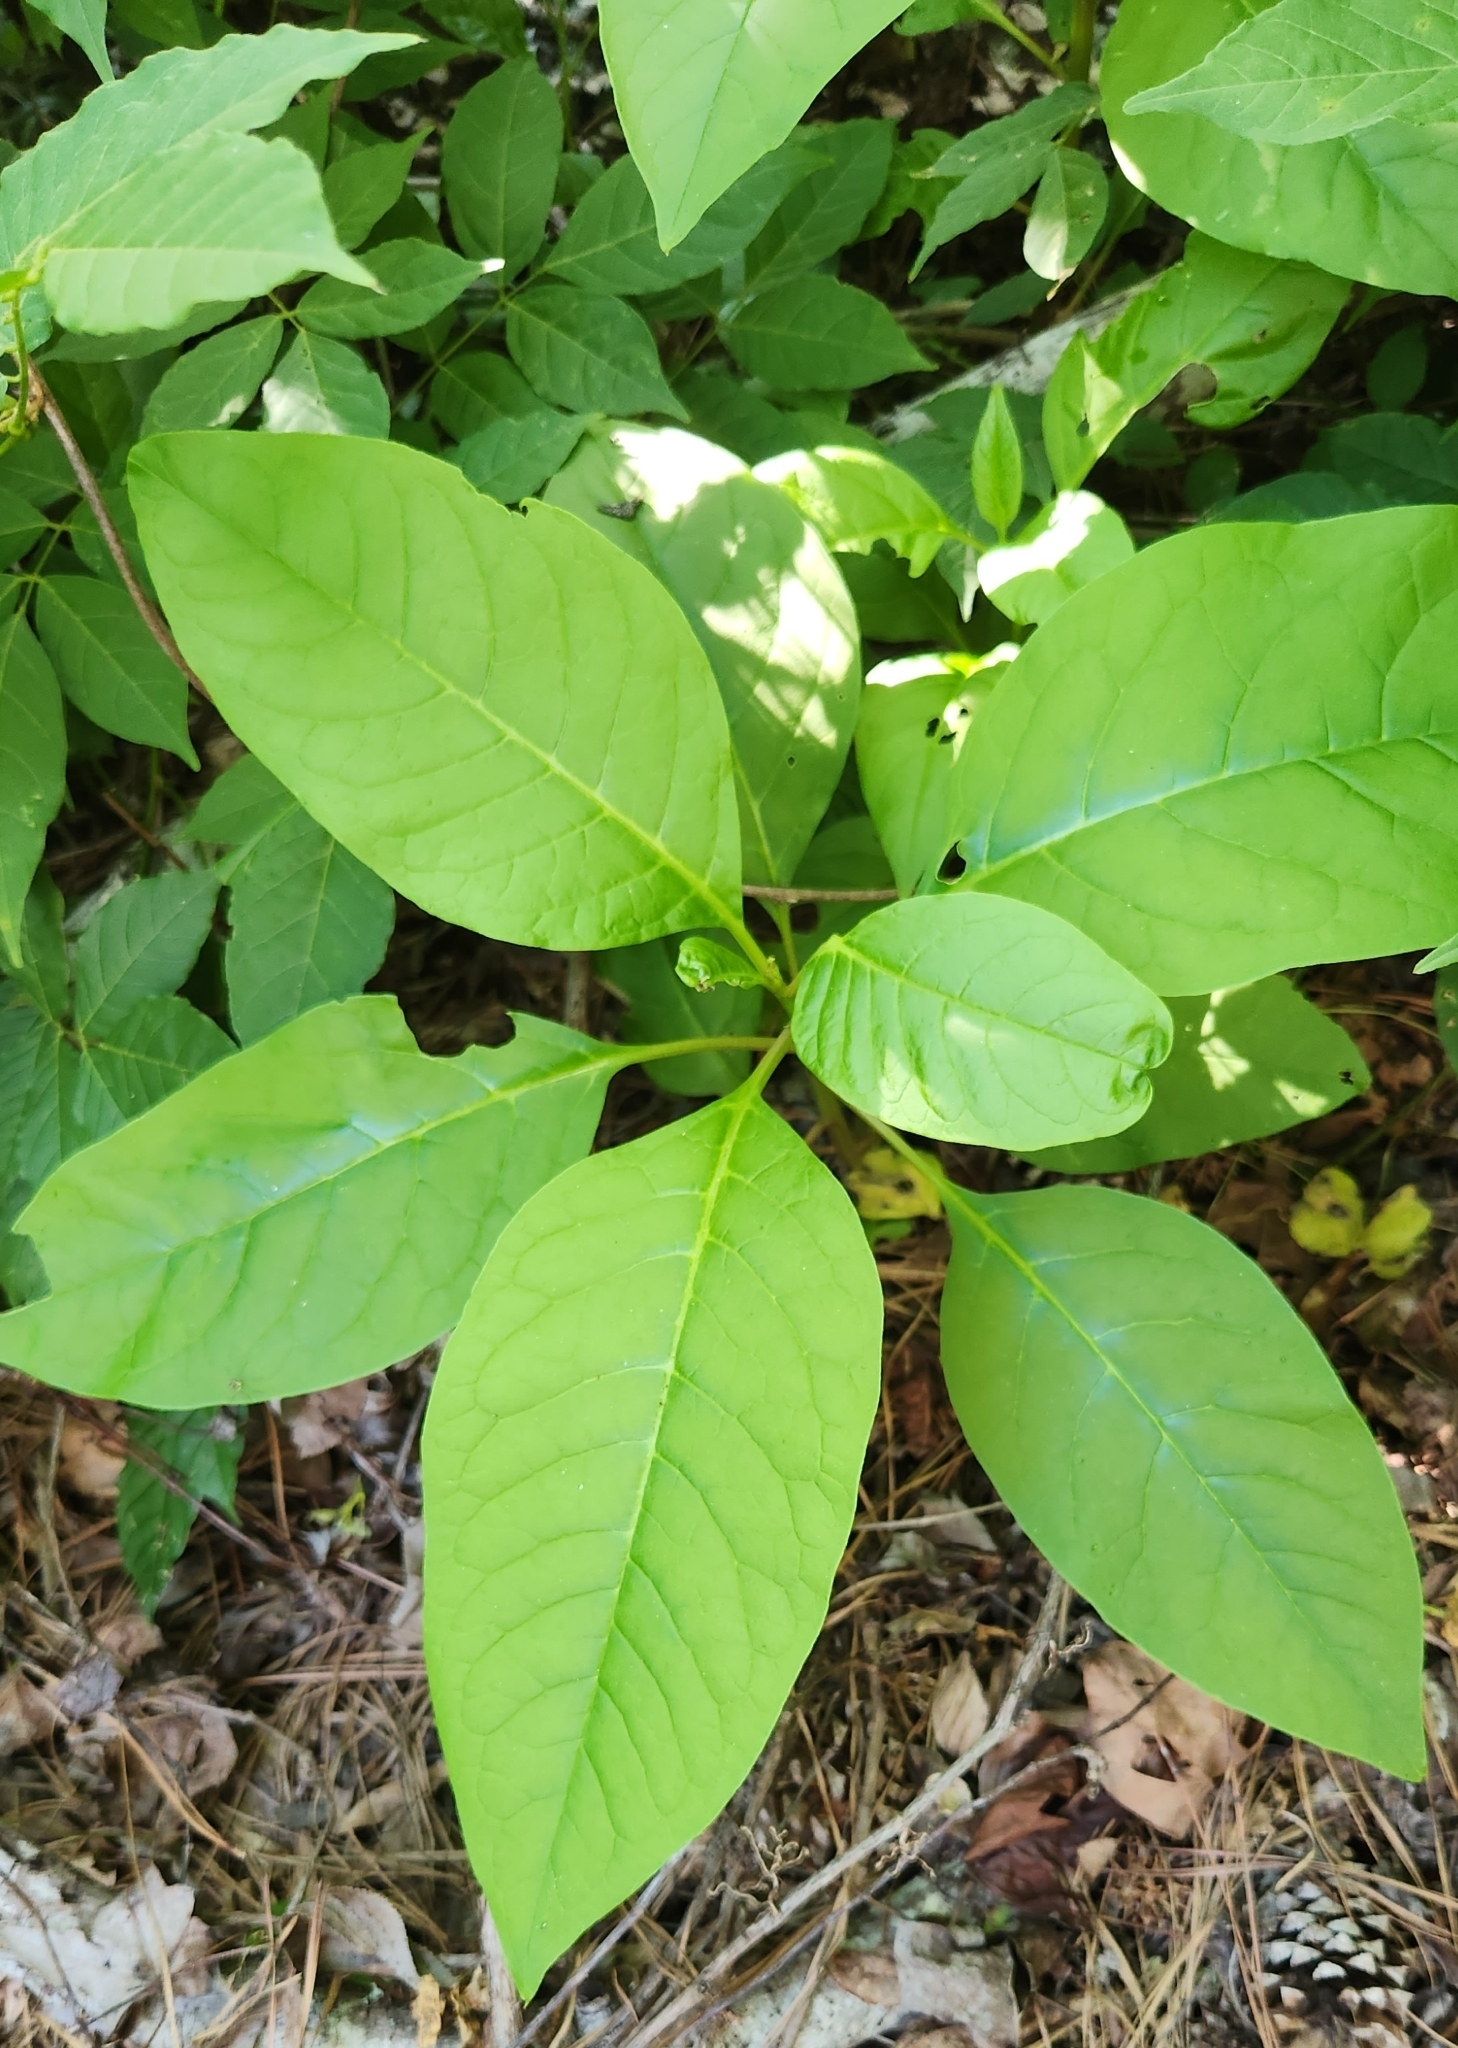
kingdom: Plantae
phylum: Tracheophyta
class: Magnoliopsida
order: Caryophyllales
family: Phytolaccaceae
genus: Phytolacca
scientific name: Phytolacca americana
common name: American pokeweed
